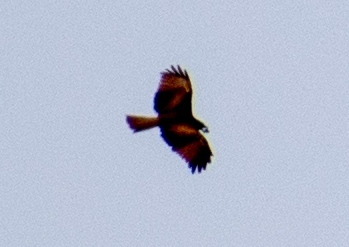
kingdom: Animalia
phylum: Chordata
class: Aves
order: Accipitriformes
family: Accipitridae
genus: Milvus
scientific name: Milvus migrans
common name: Black kite
